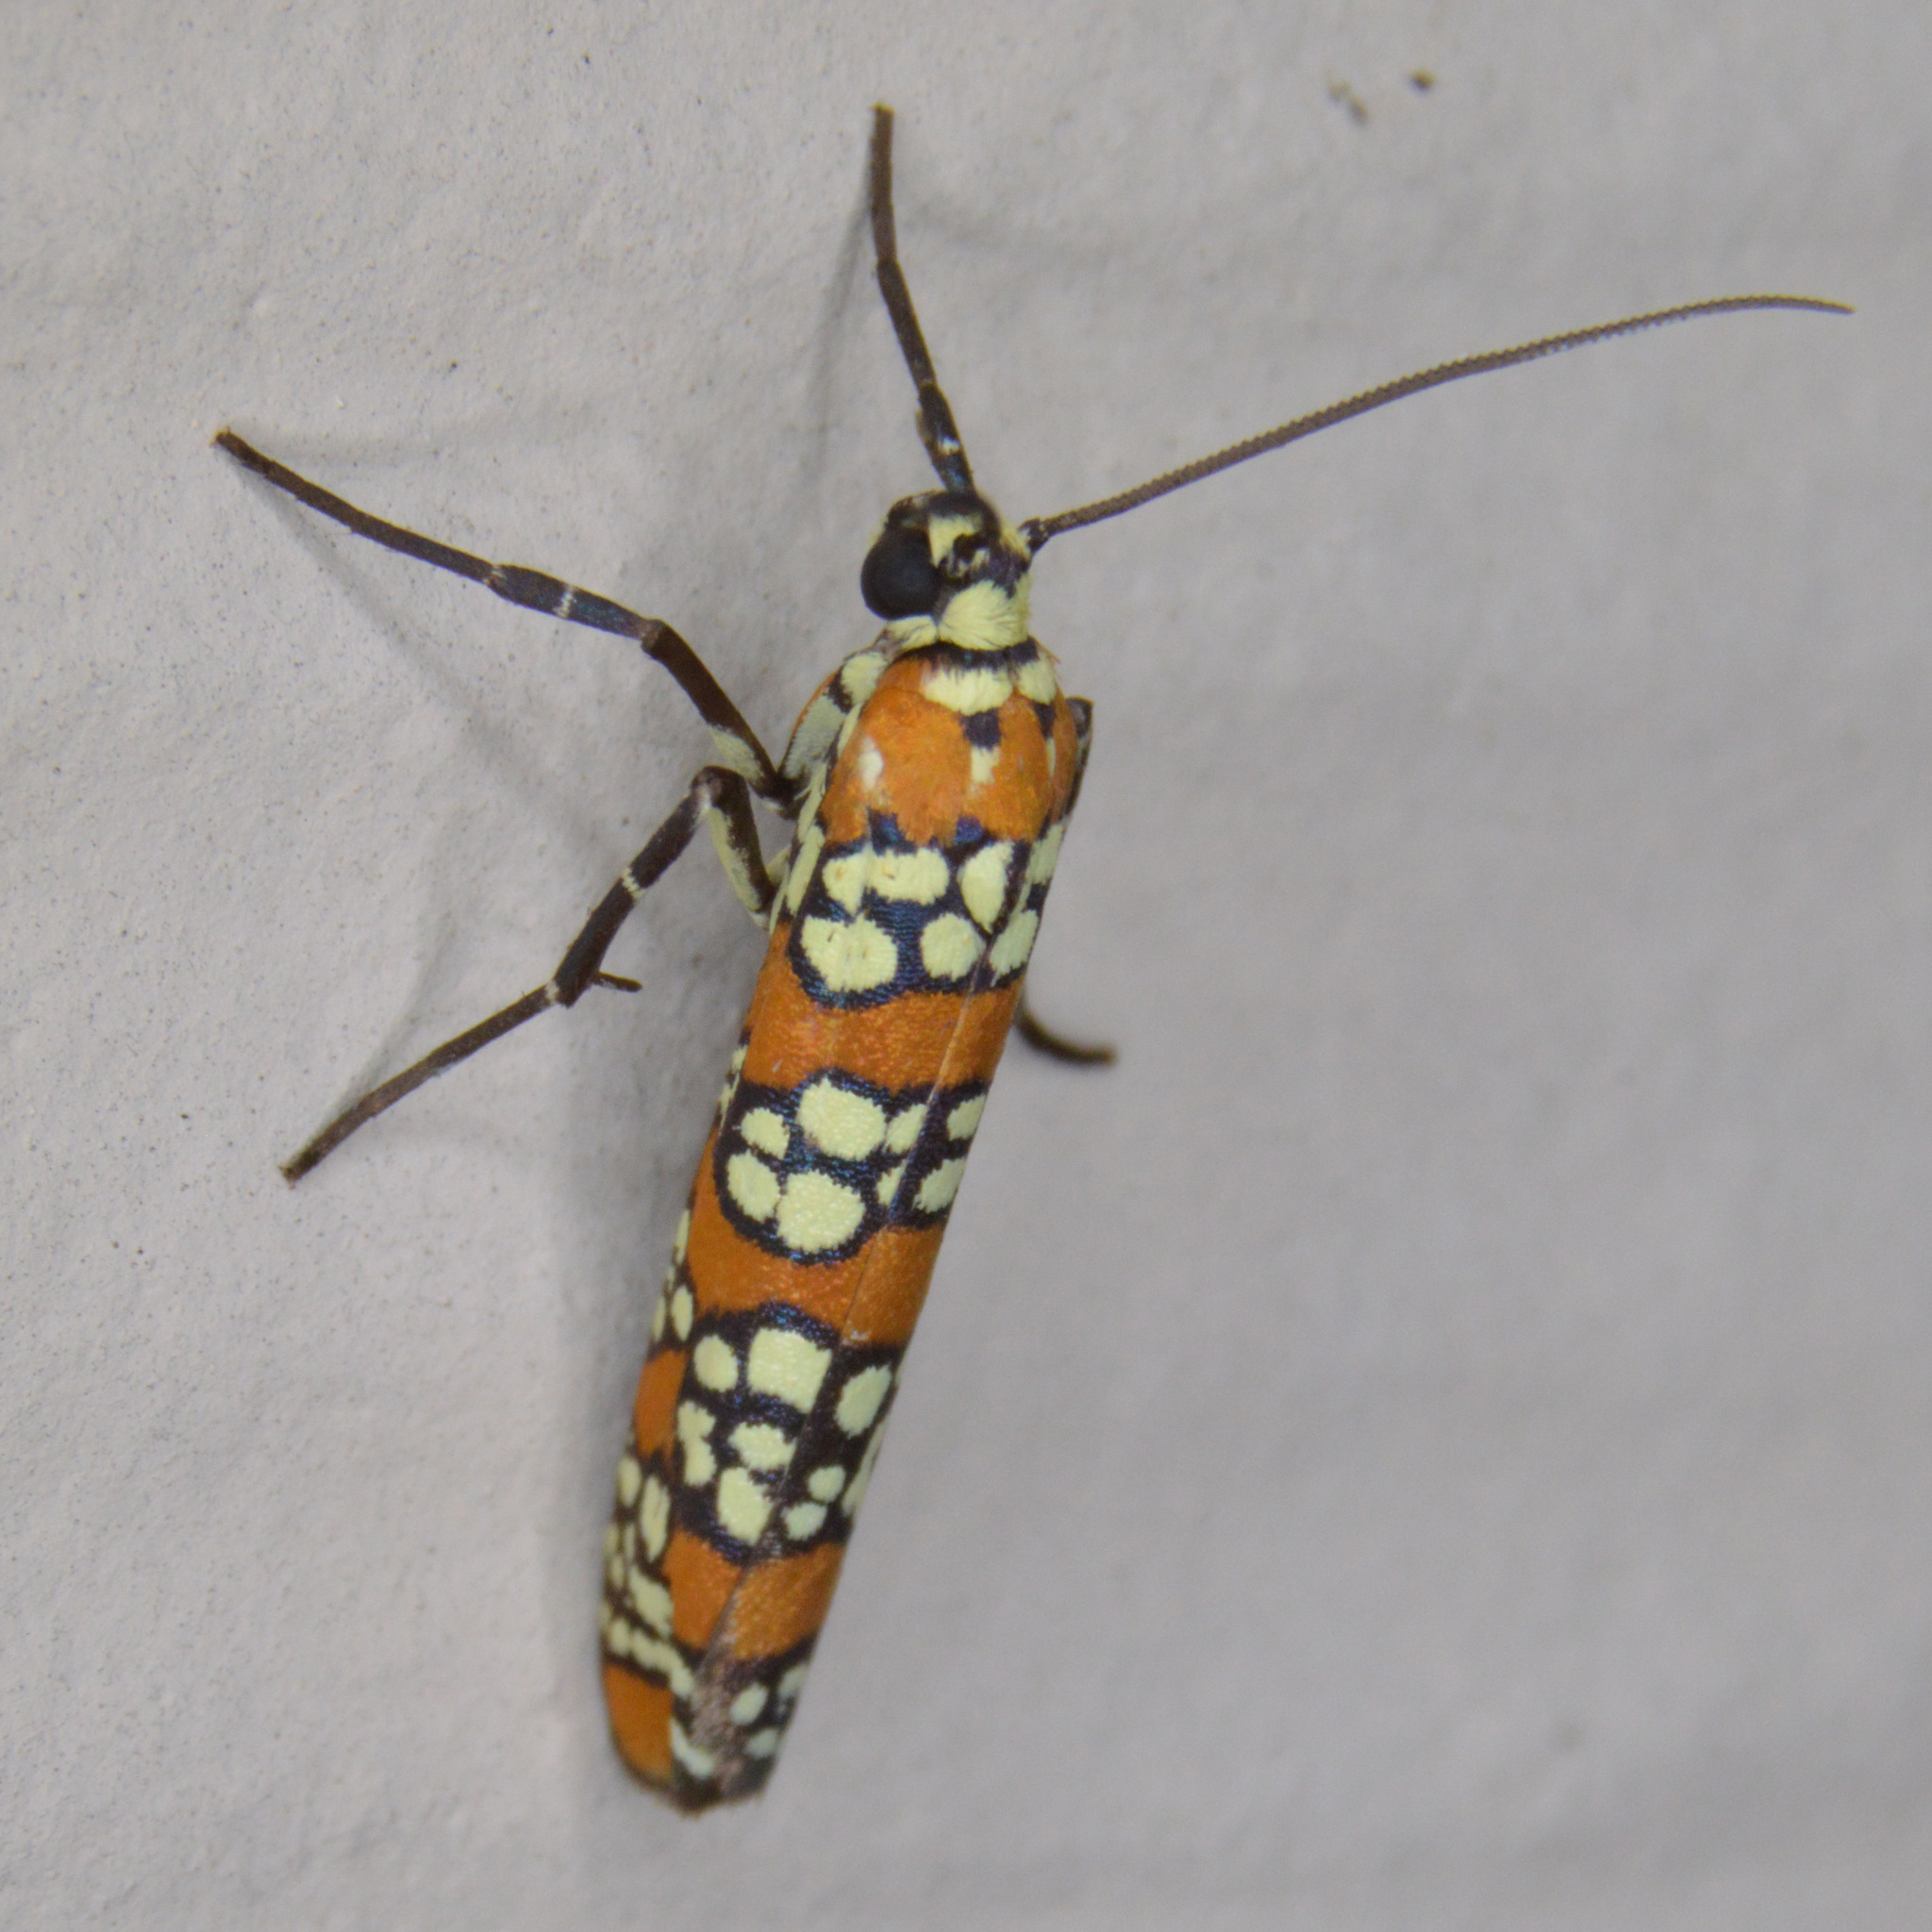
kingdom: Animalia
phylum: Arthropoda
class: Insecta
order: Lepidoptera
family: Attevidae
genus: Atteva
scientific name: Atteva punctella
